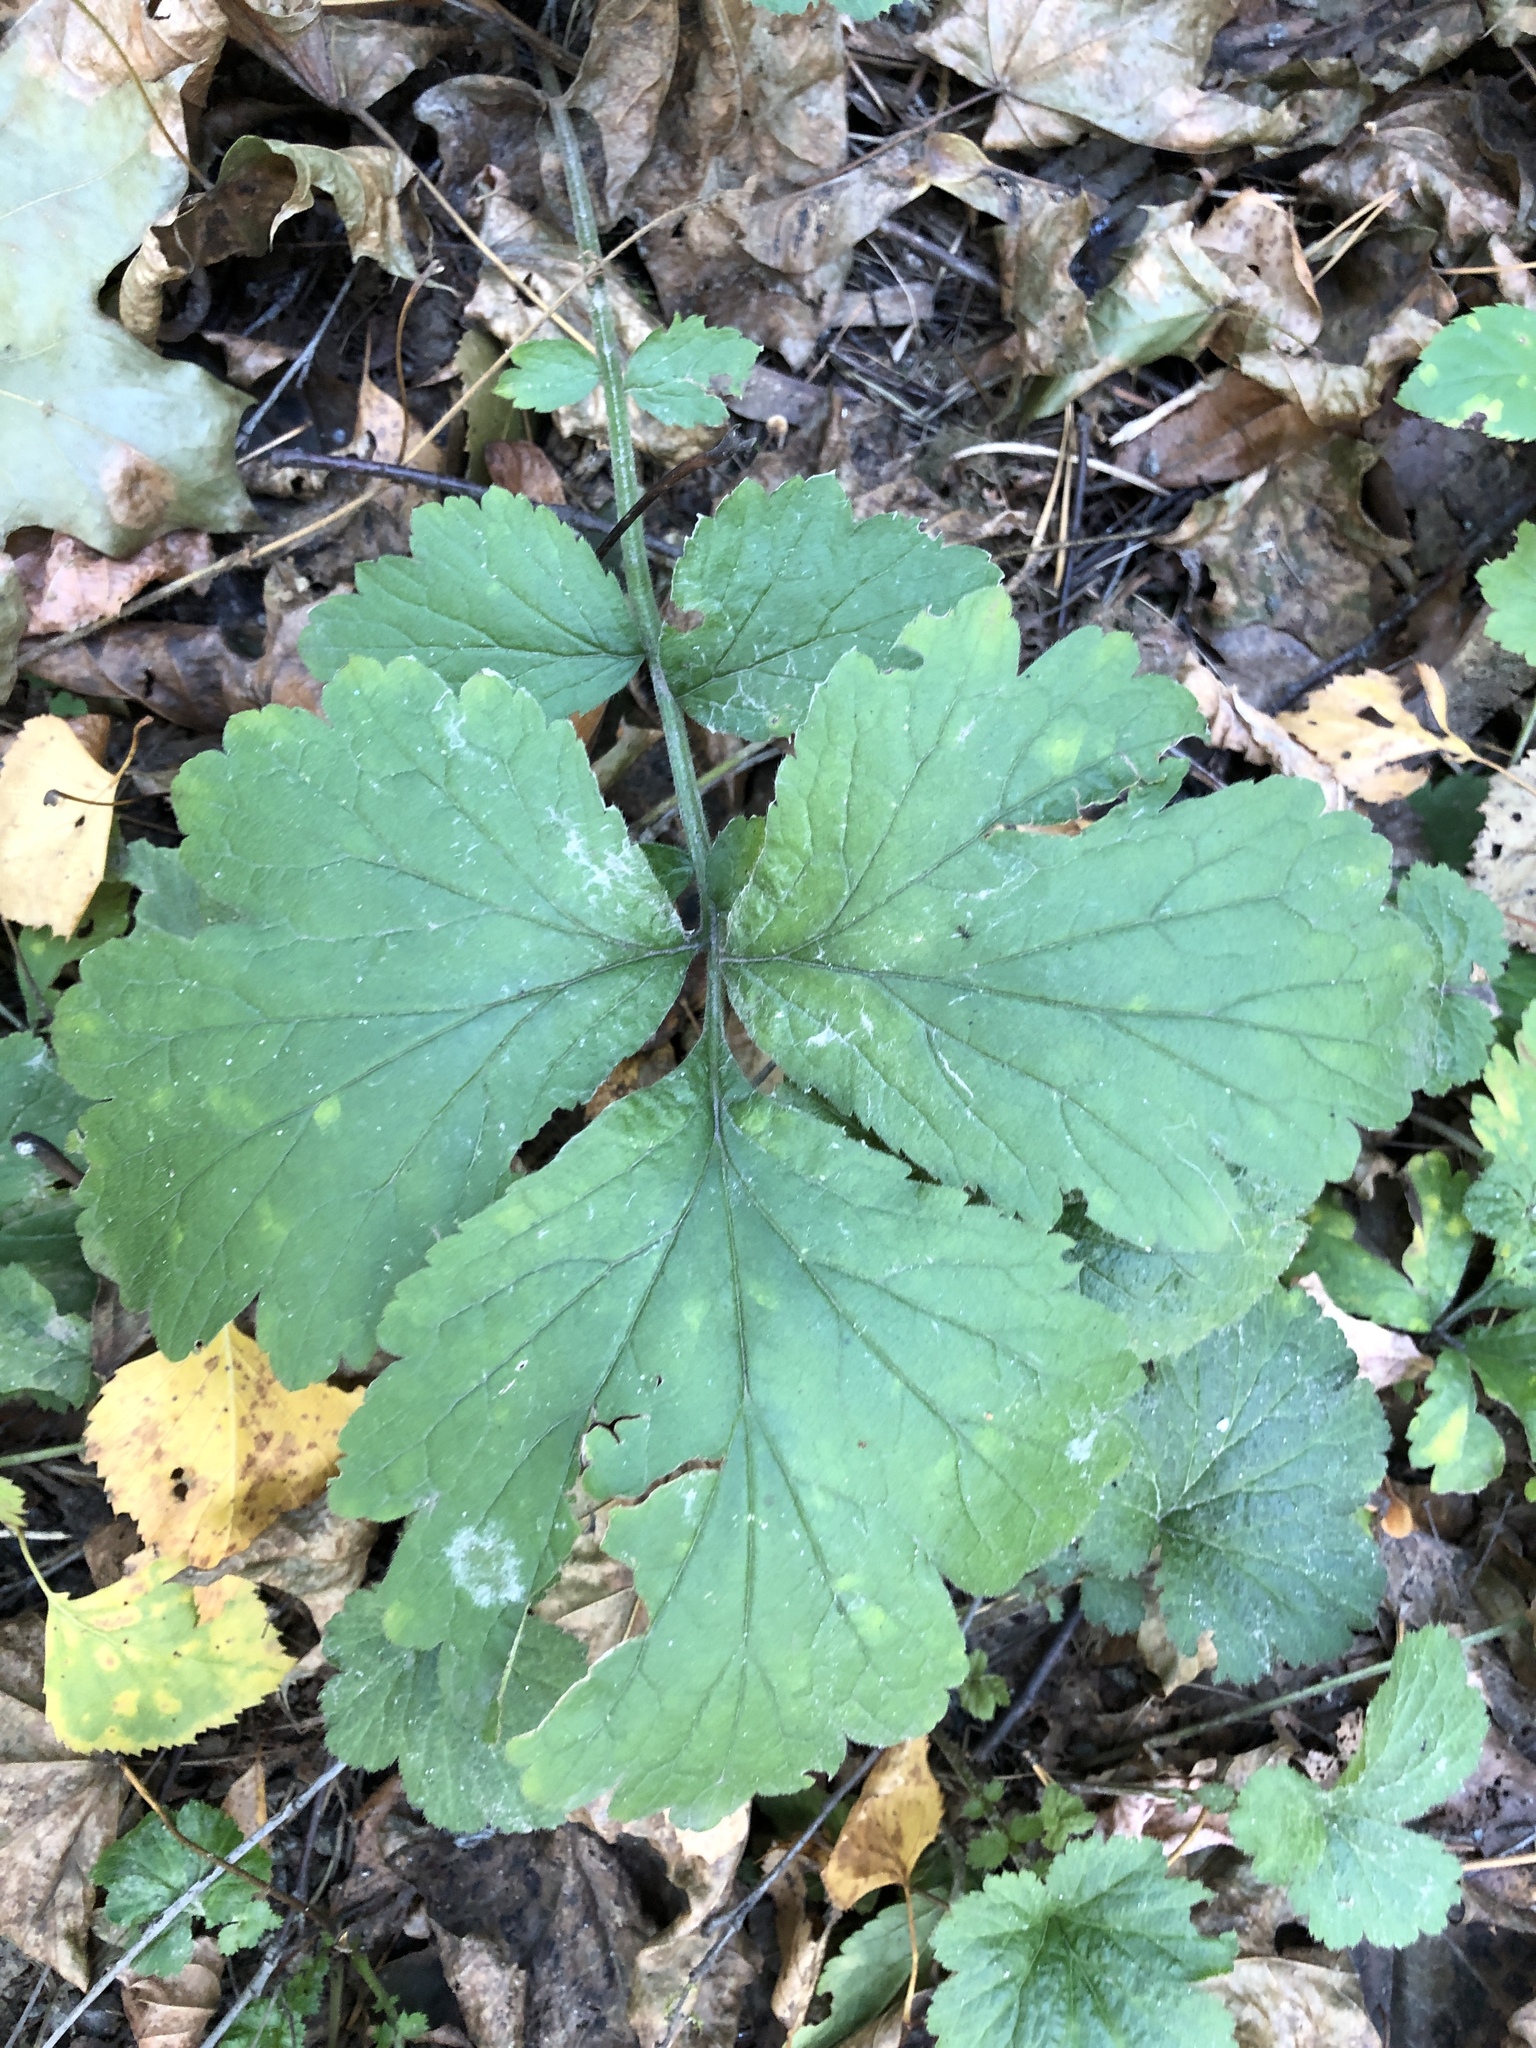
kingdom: Plantae
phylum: Tracheophyta
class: Magnoliopsida
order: Rosales
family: Rosaceae
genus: Geum
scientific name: Geum
